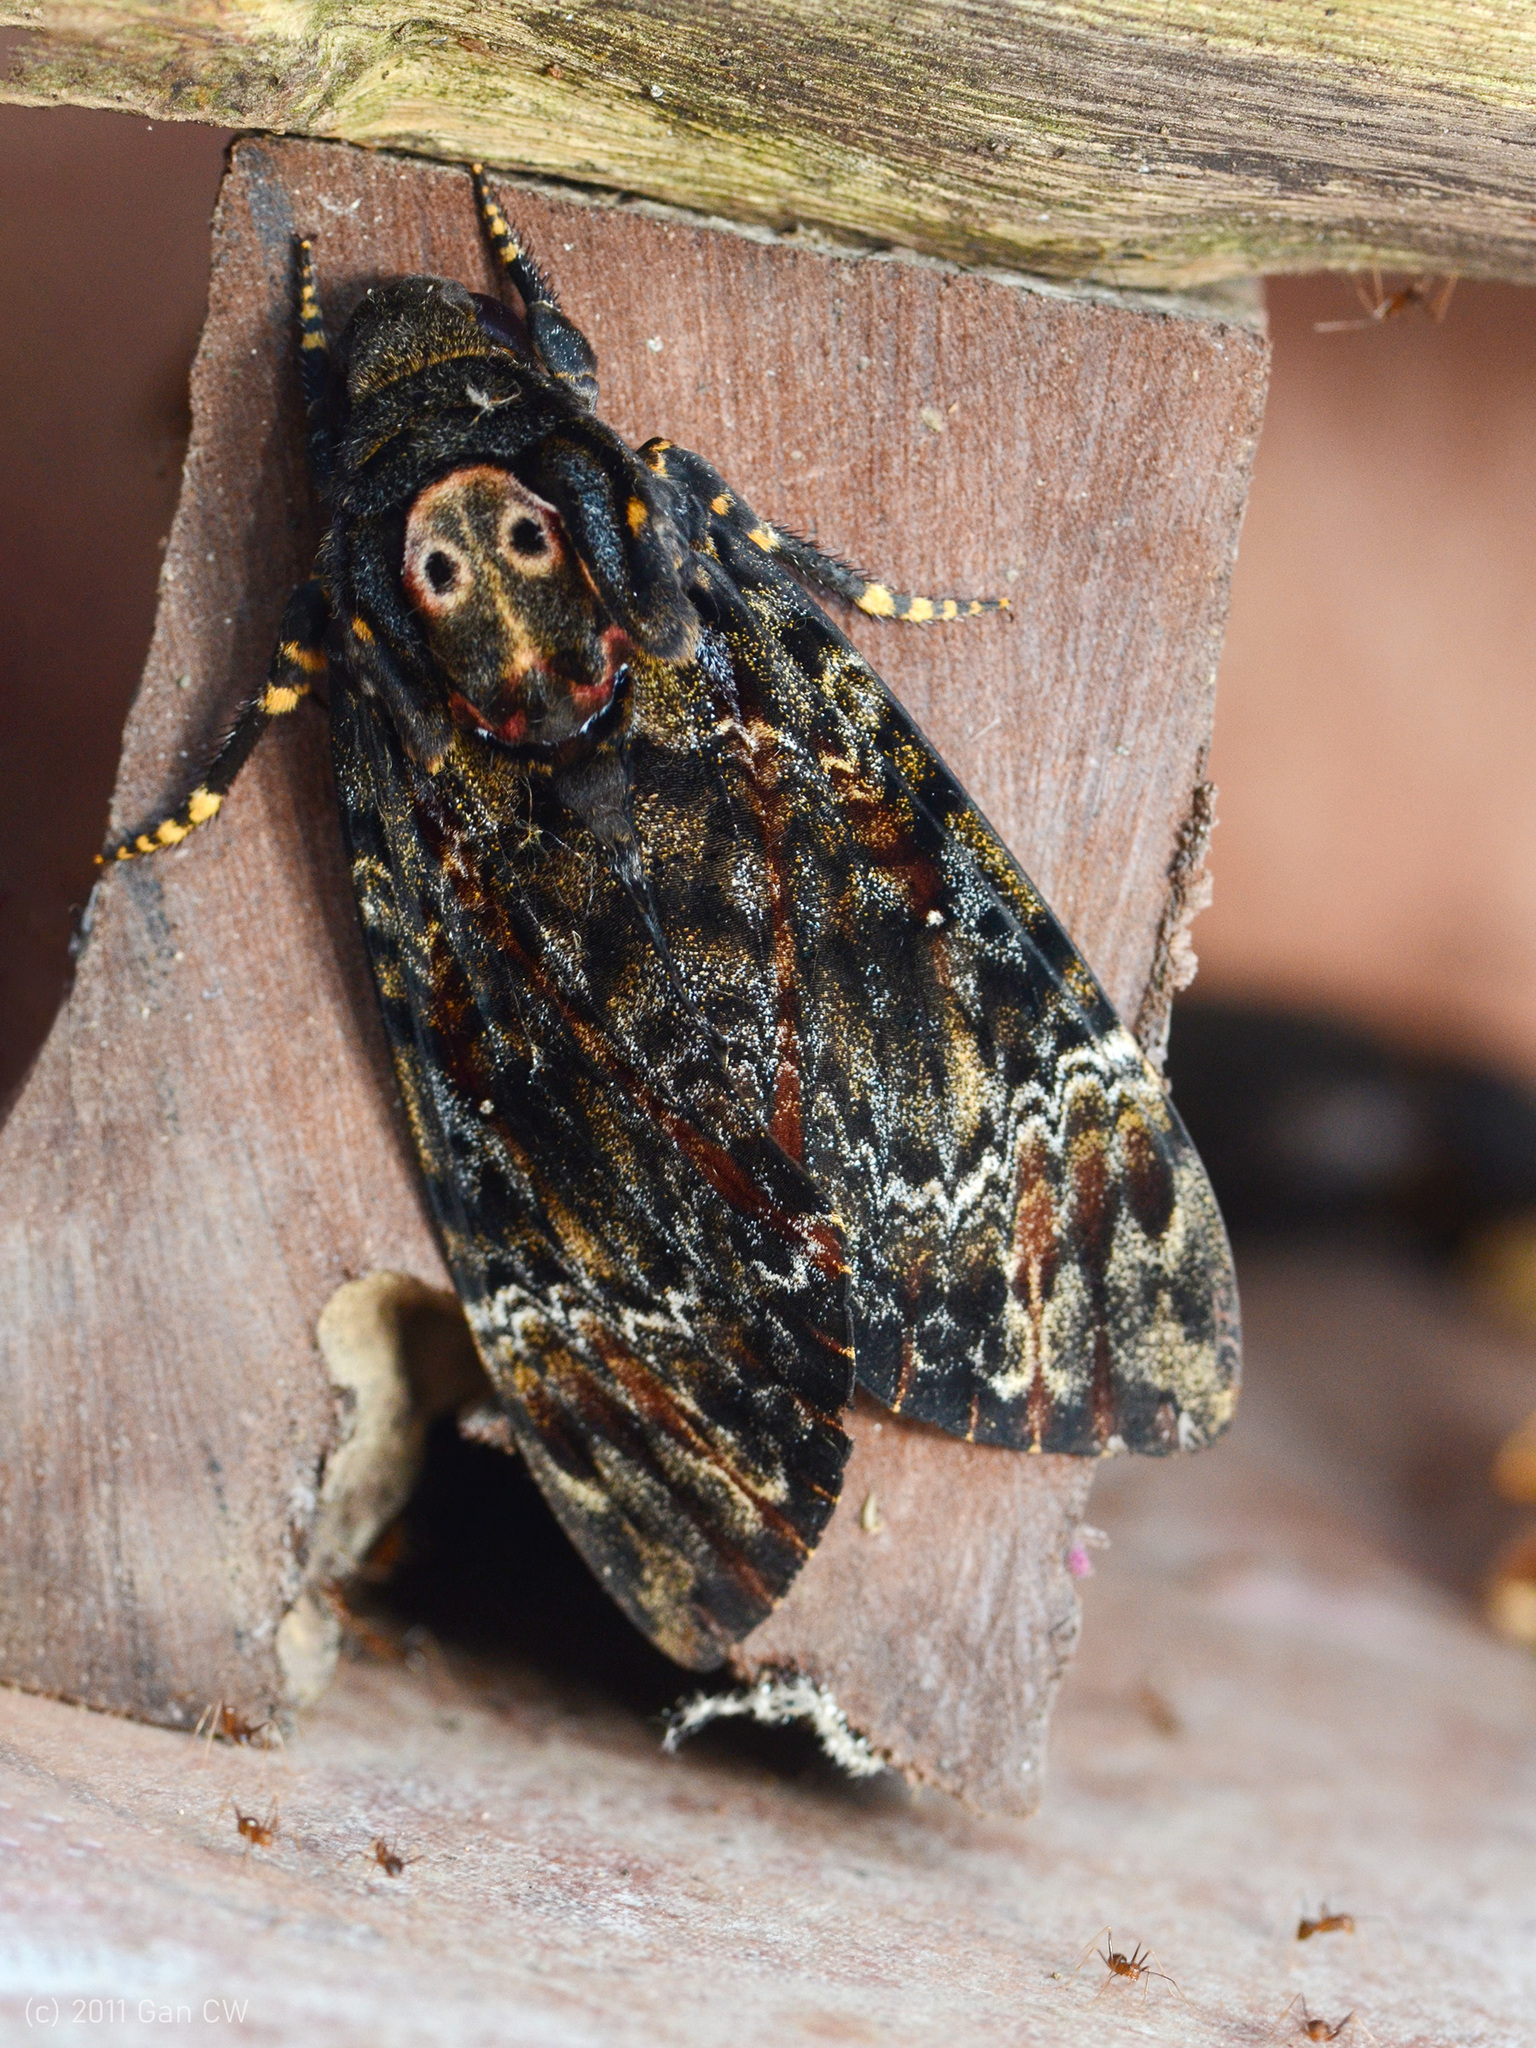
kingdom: Animalia
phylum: Arthropoda
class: Insecta
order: Lepidoptera
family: Sphingidae
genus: Acherontia
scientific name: Acherontia lachesis
